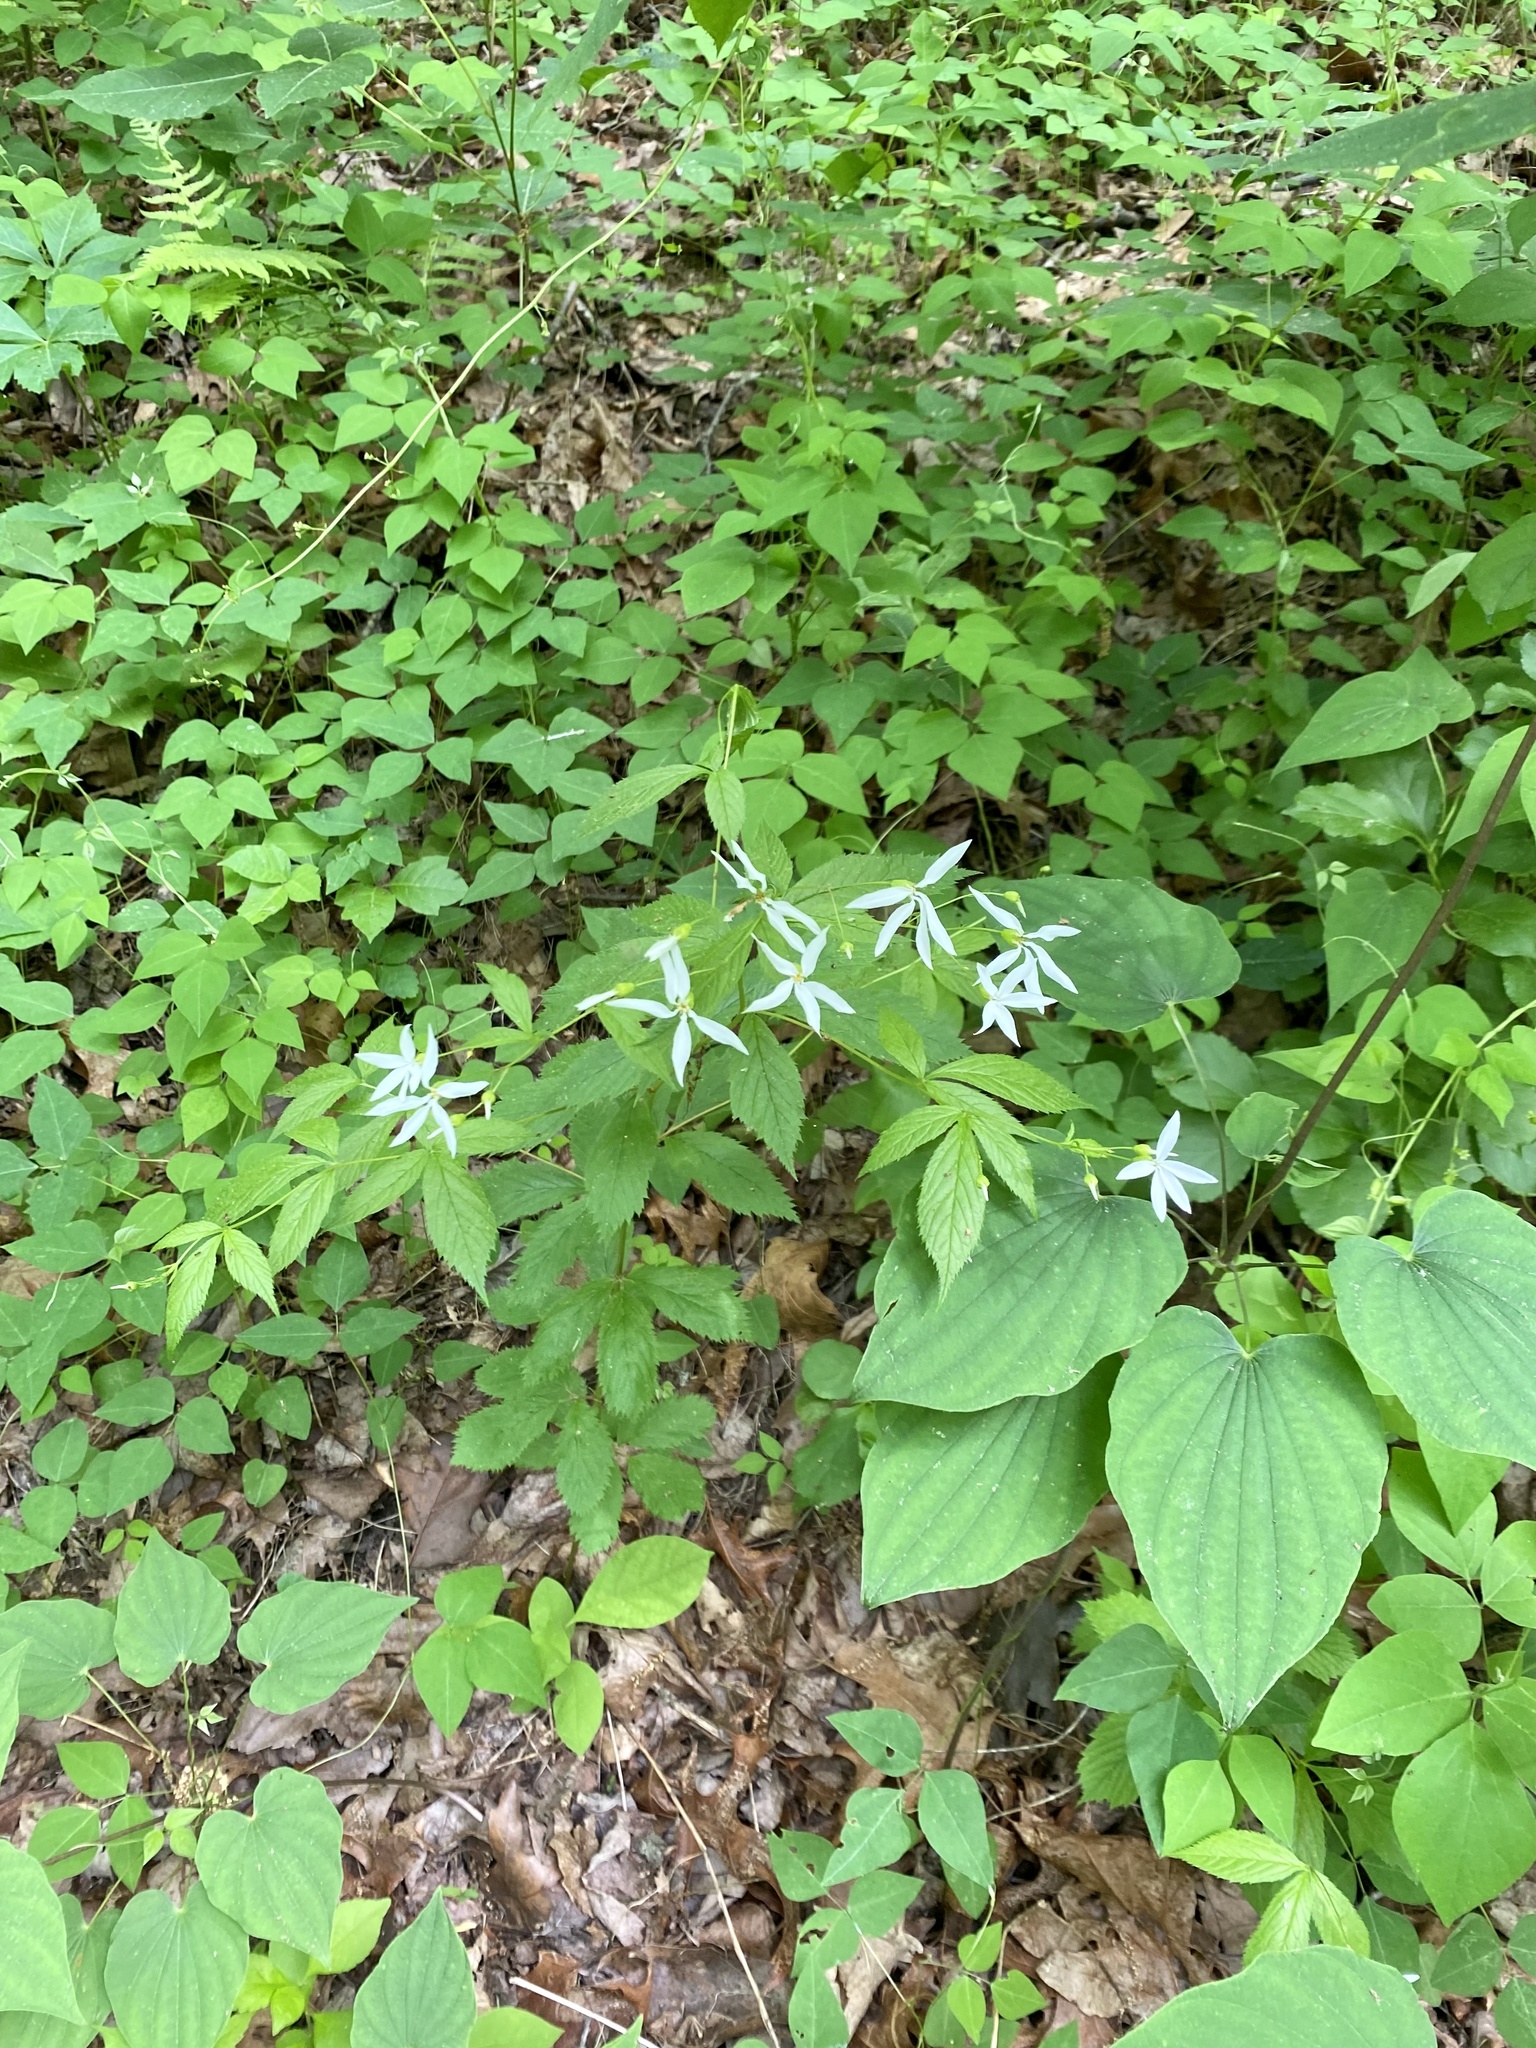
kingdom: Plantae
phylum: Tracheophyta
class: Magnoliopsida
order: Fabales
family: Fabaceae
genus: Amphicarpaea
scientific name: Amphicarpaea bracteata
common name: American hog peanut
